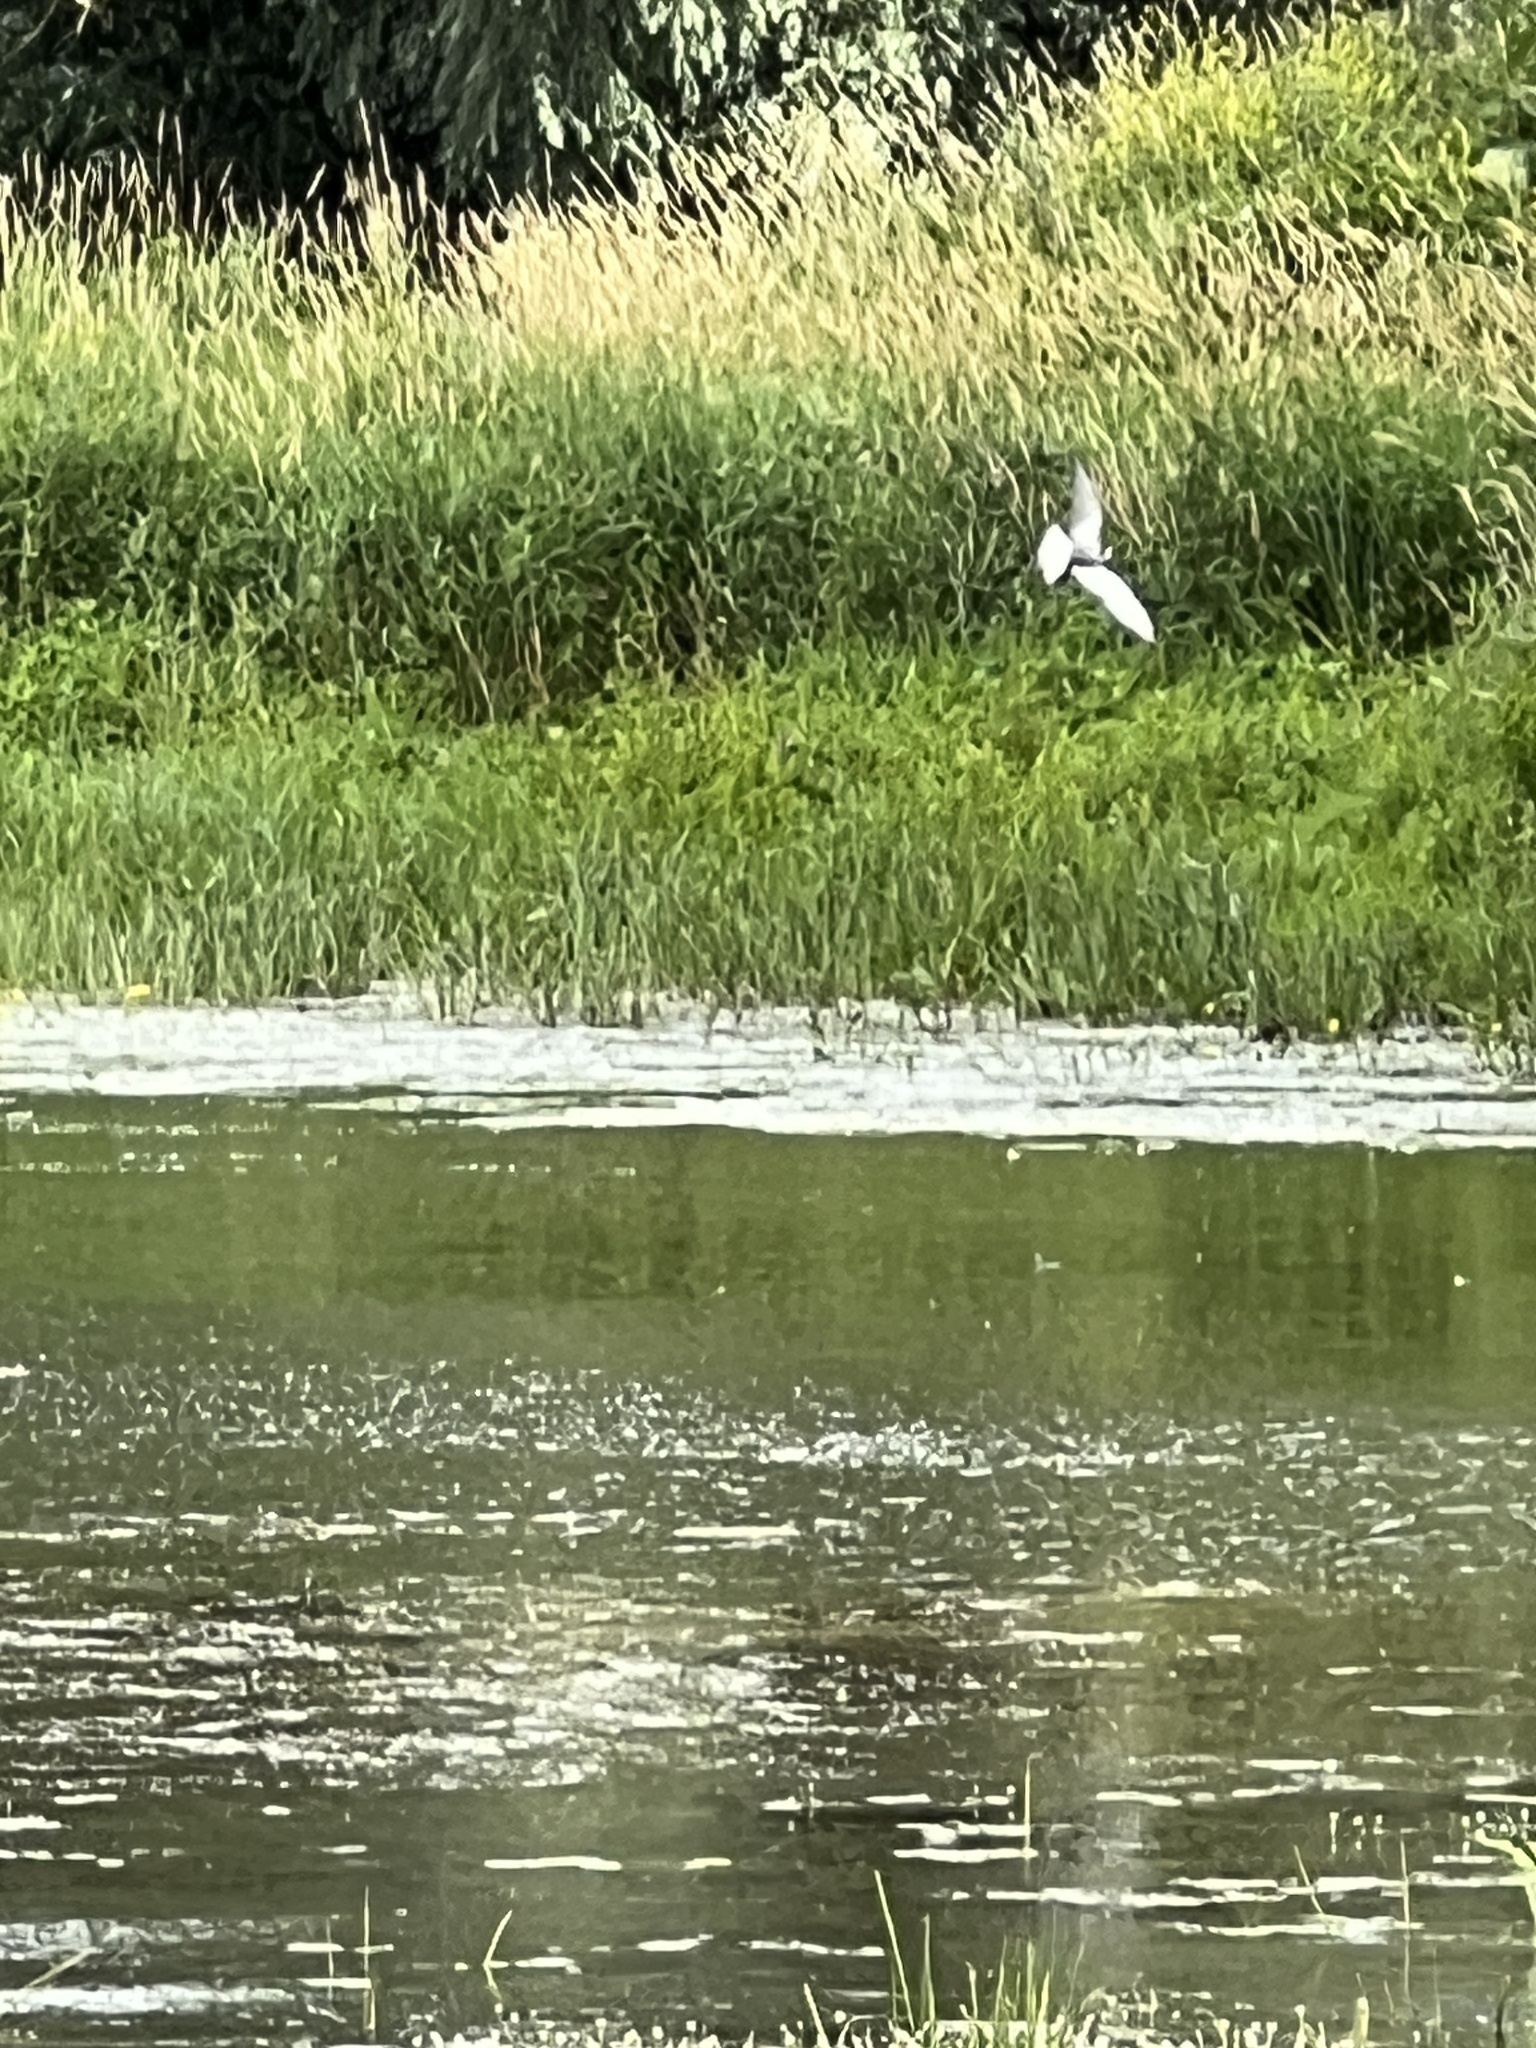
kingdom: Animalia
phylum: Chordata
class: Aves
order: Charadriiformes
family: Laridae
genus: Chlidonias
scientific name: Chlidonias niger
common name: Black tern
